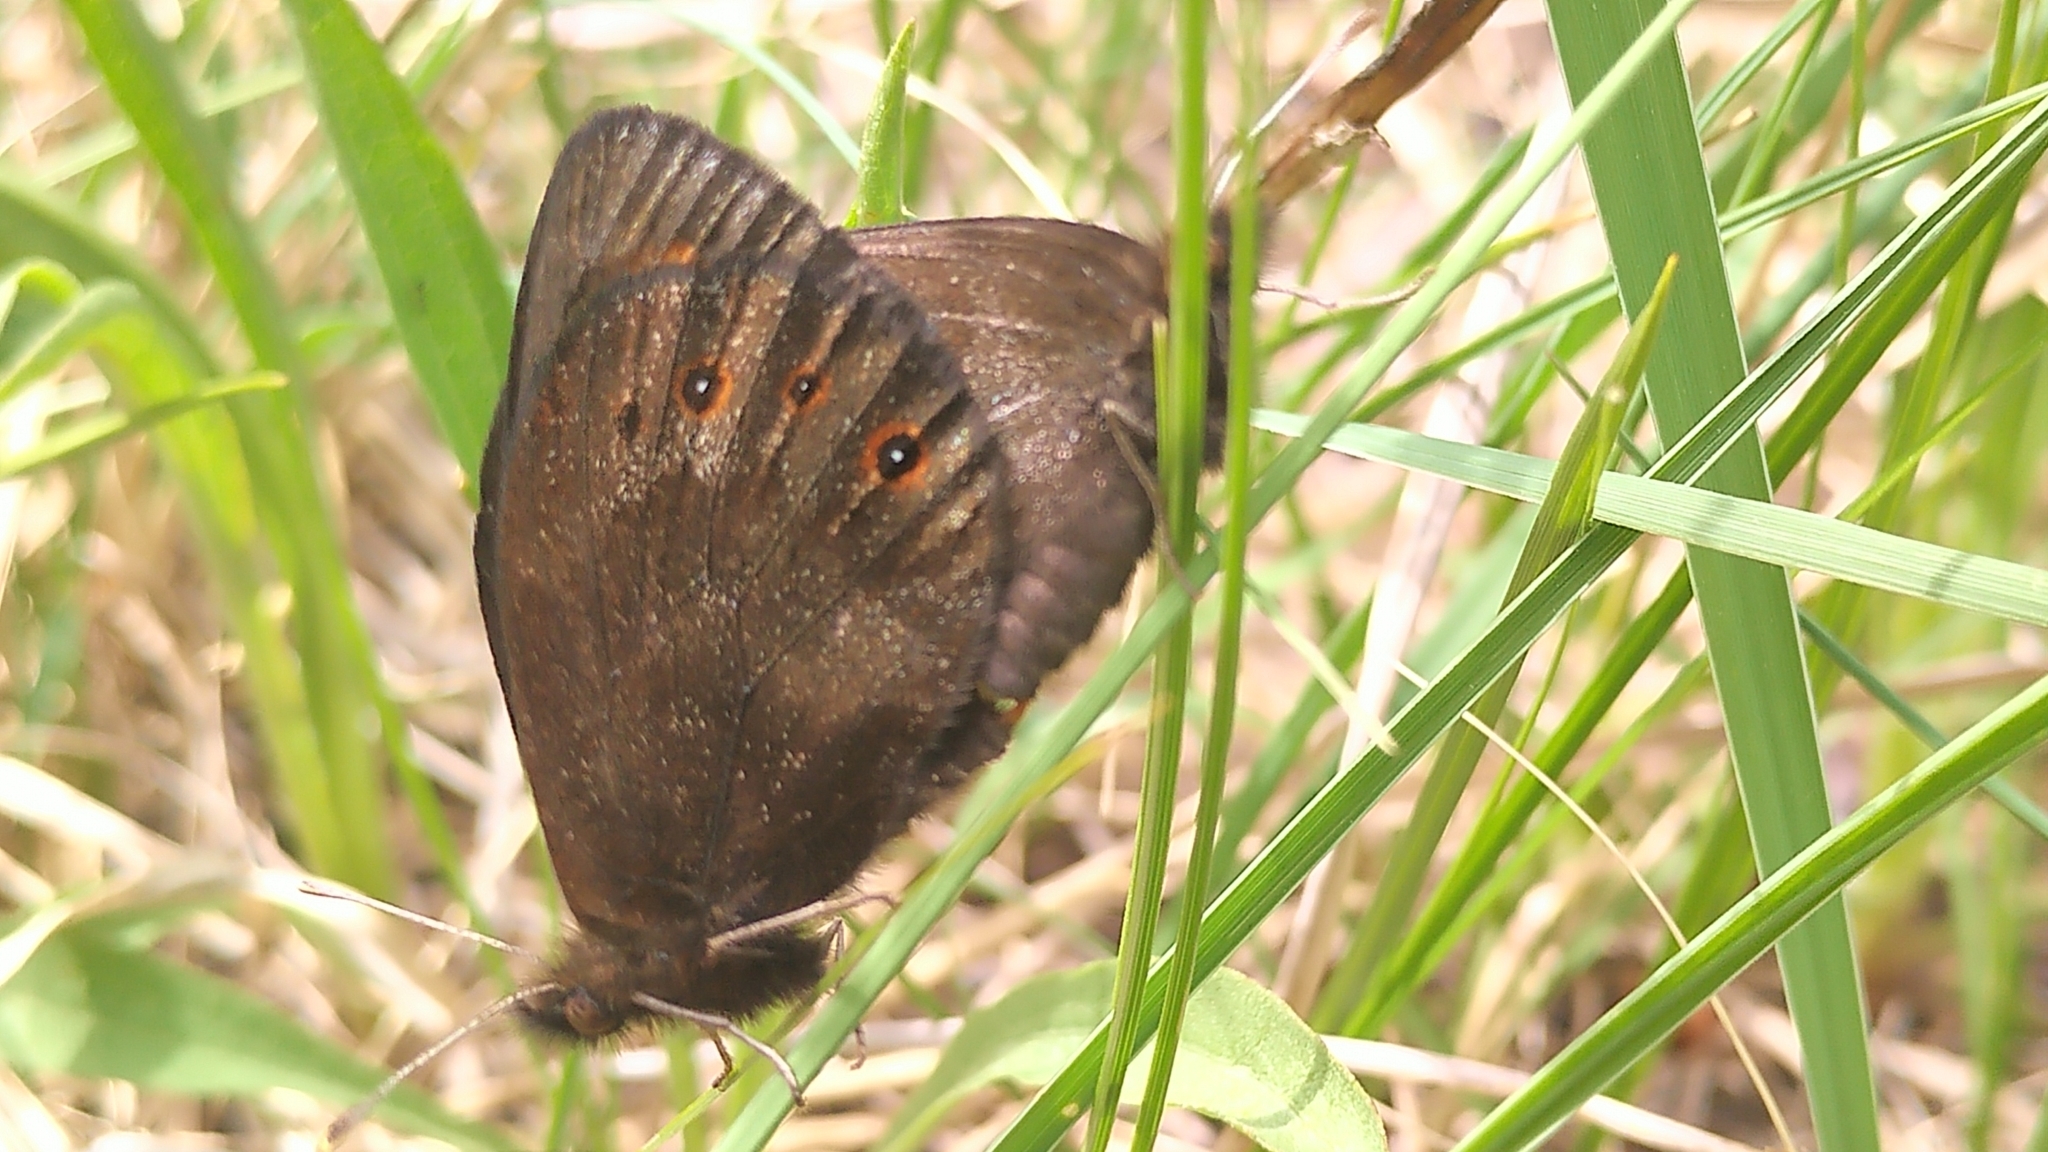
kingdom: Animalia
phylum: Arthropoda
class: Insecta
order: Lepidoptera
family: Nymphalidae
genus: Erebia
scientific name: Erebia epipsodea
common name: Common alpine
